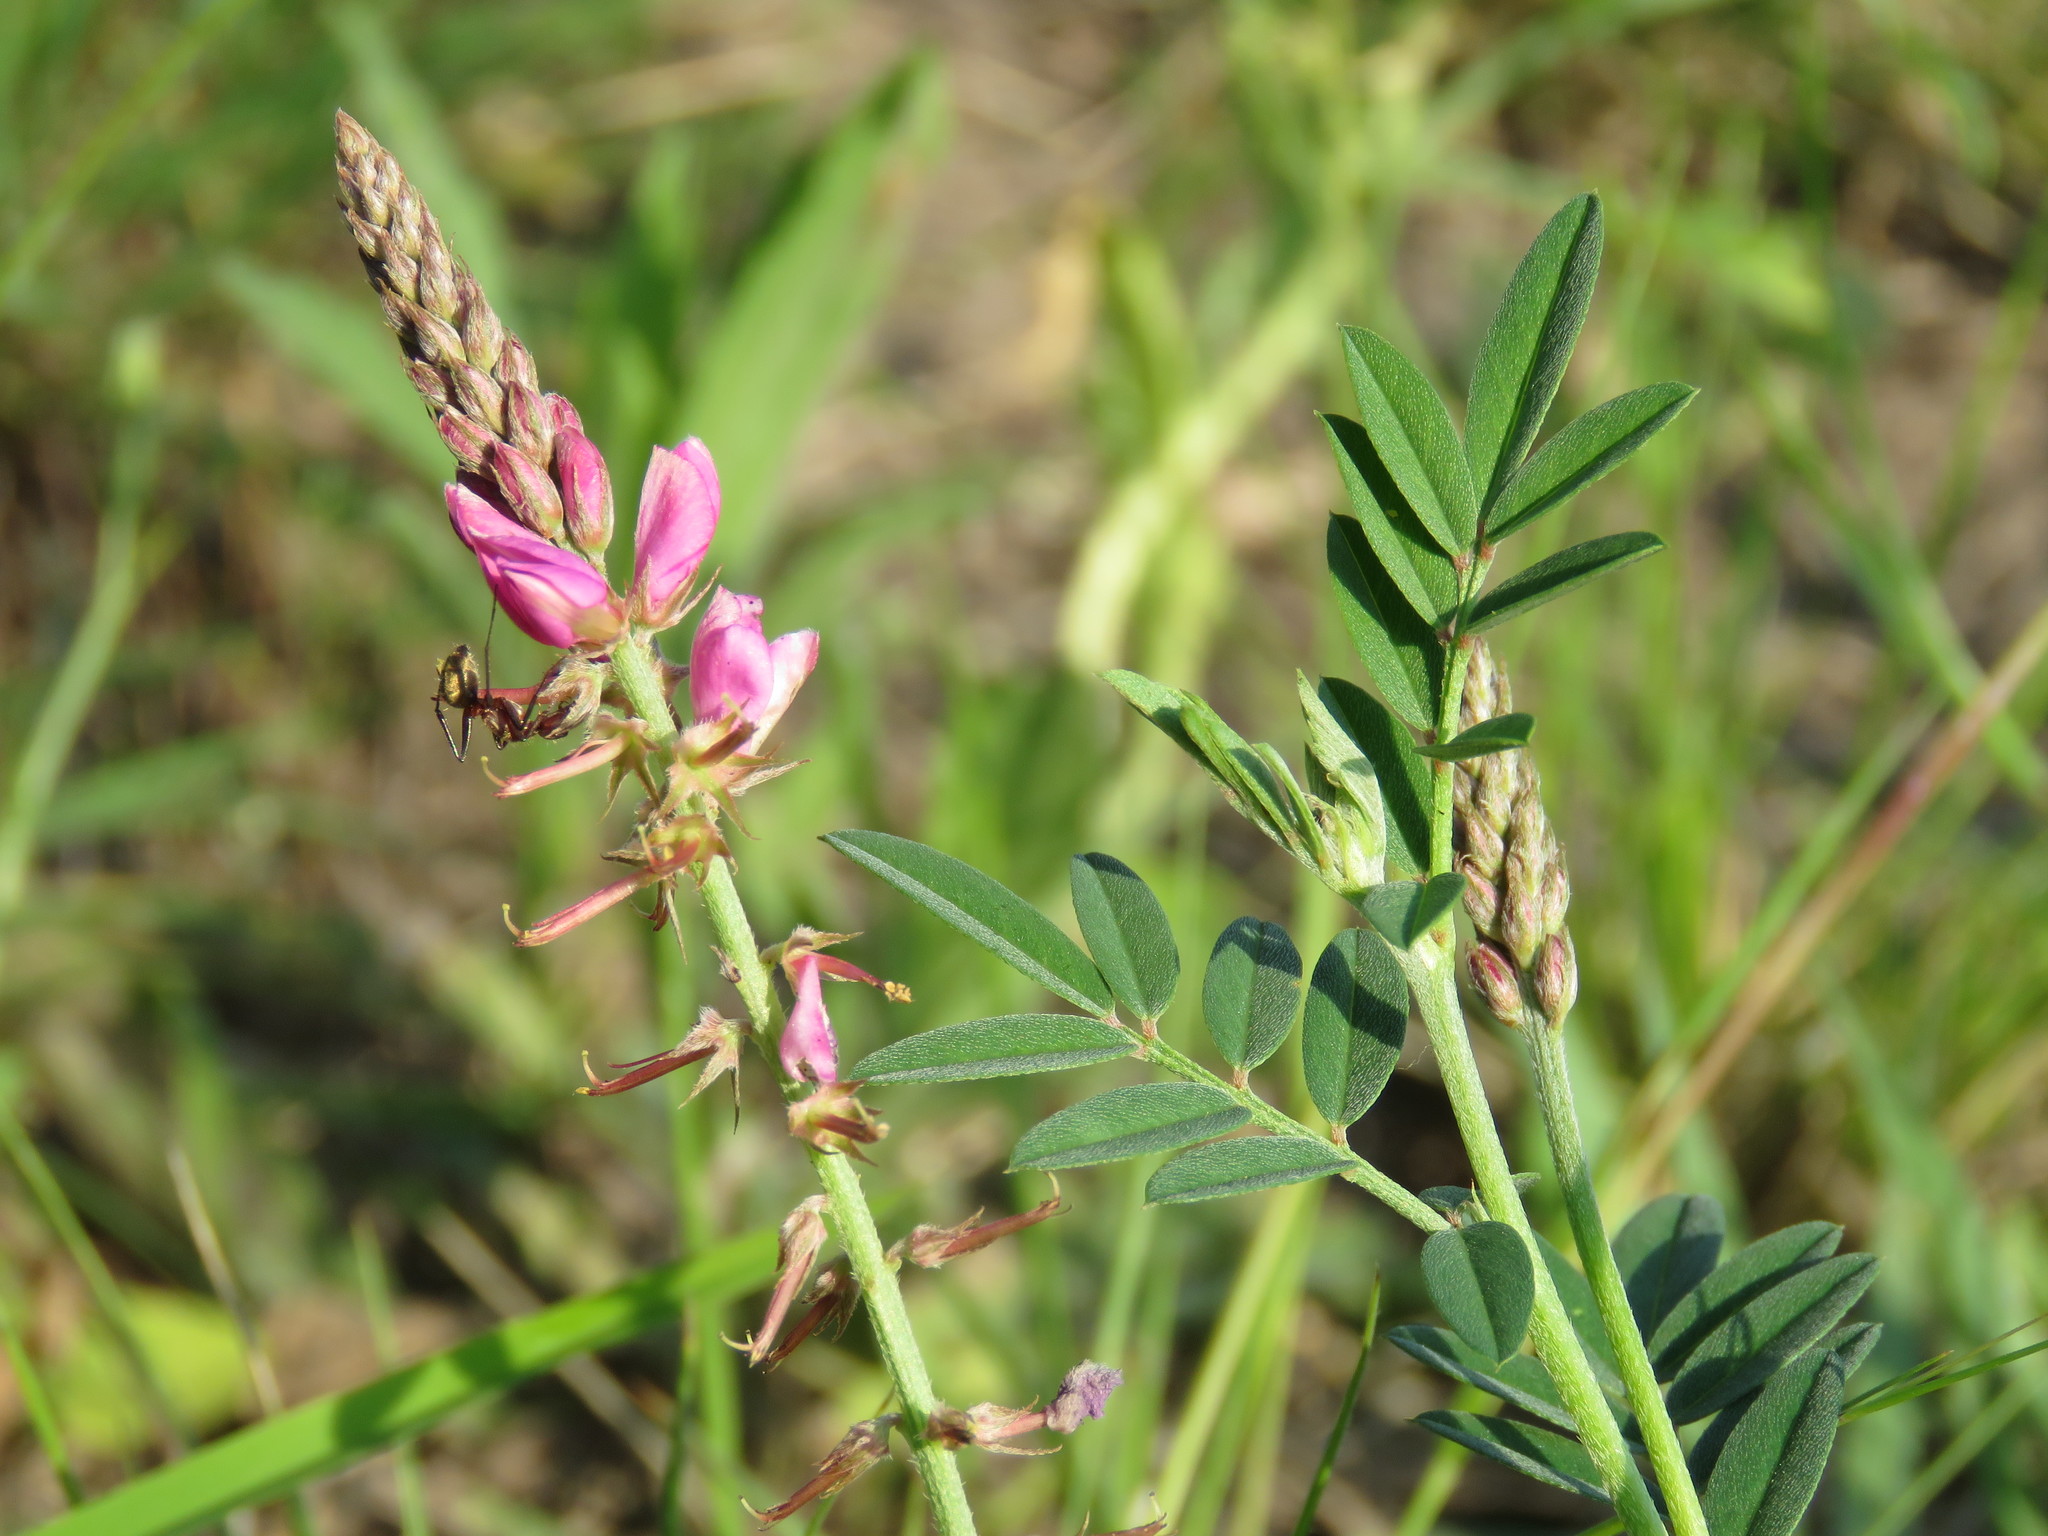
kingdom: Plantae
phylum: Tracheophyta
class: Magnoliopsida
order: Fabales
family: Fabaceae
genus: Indigofera
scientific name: Indigofera asperifolia
